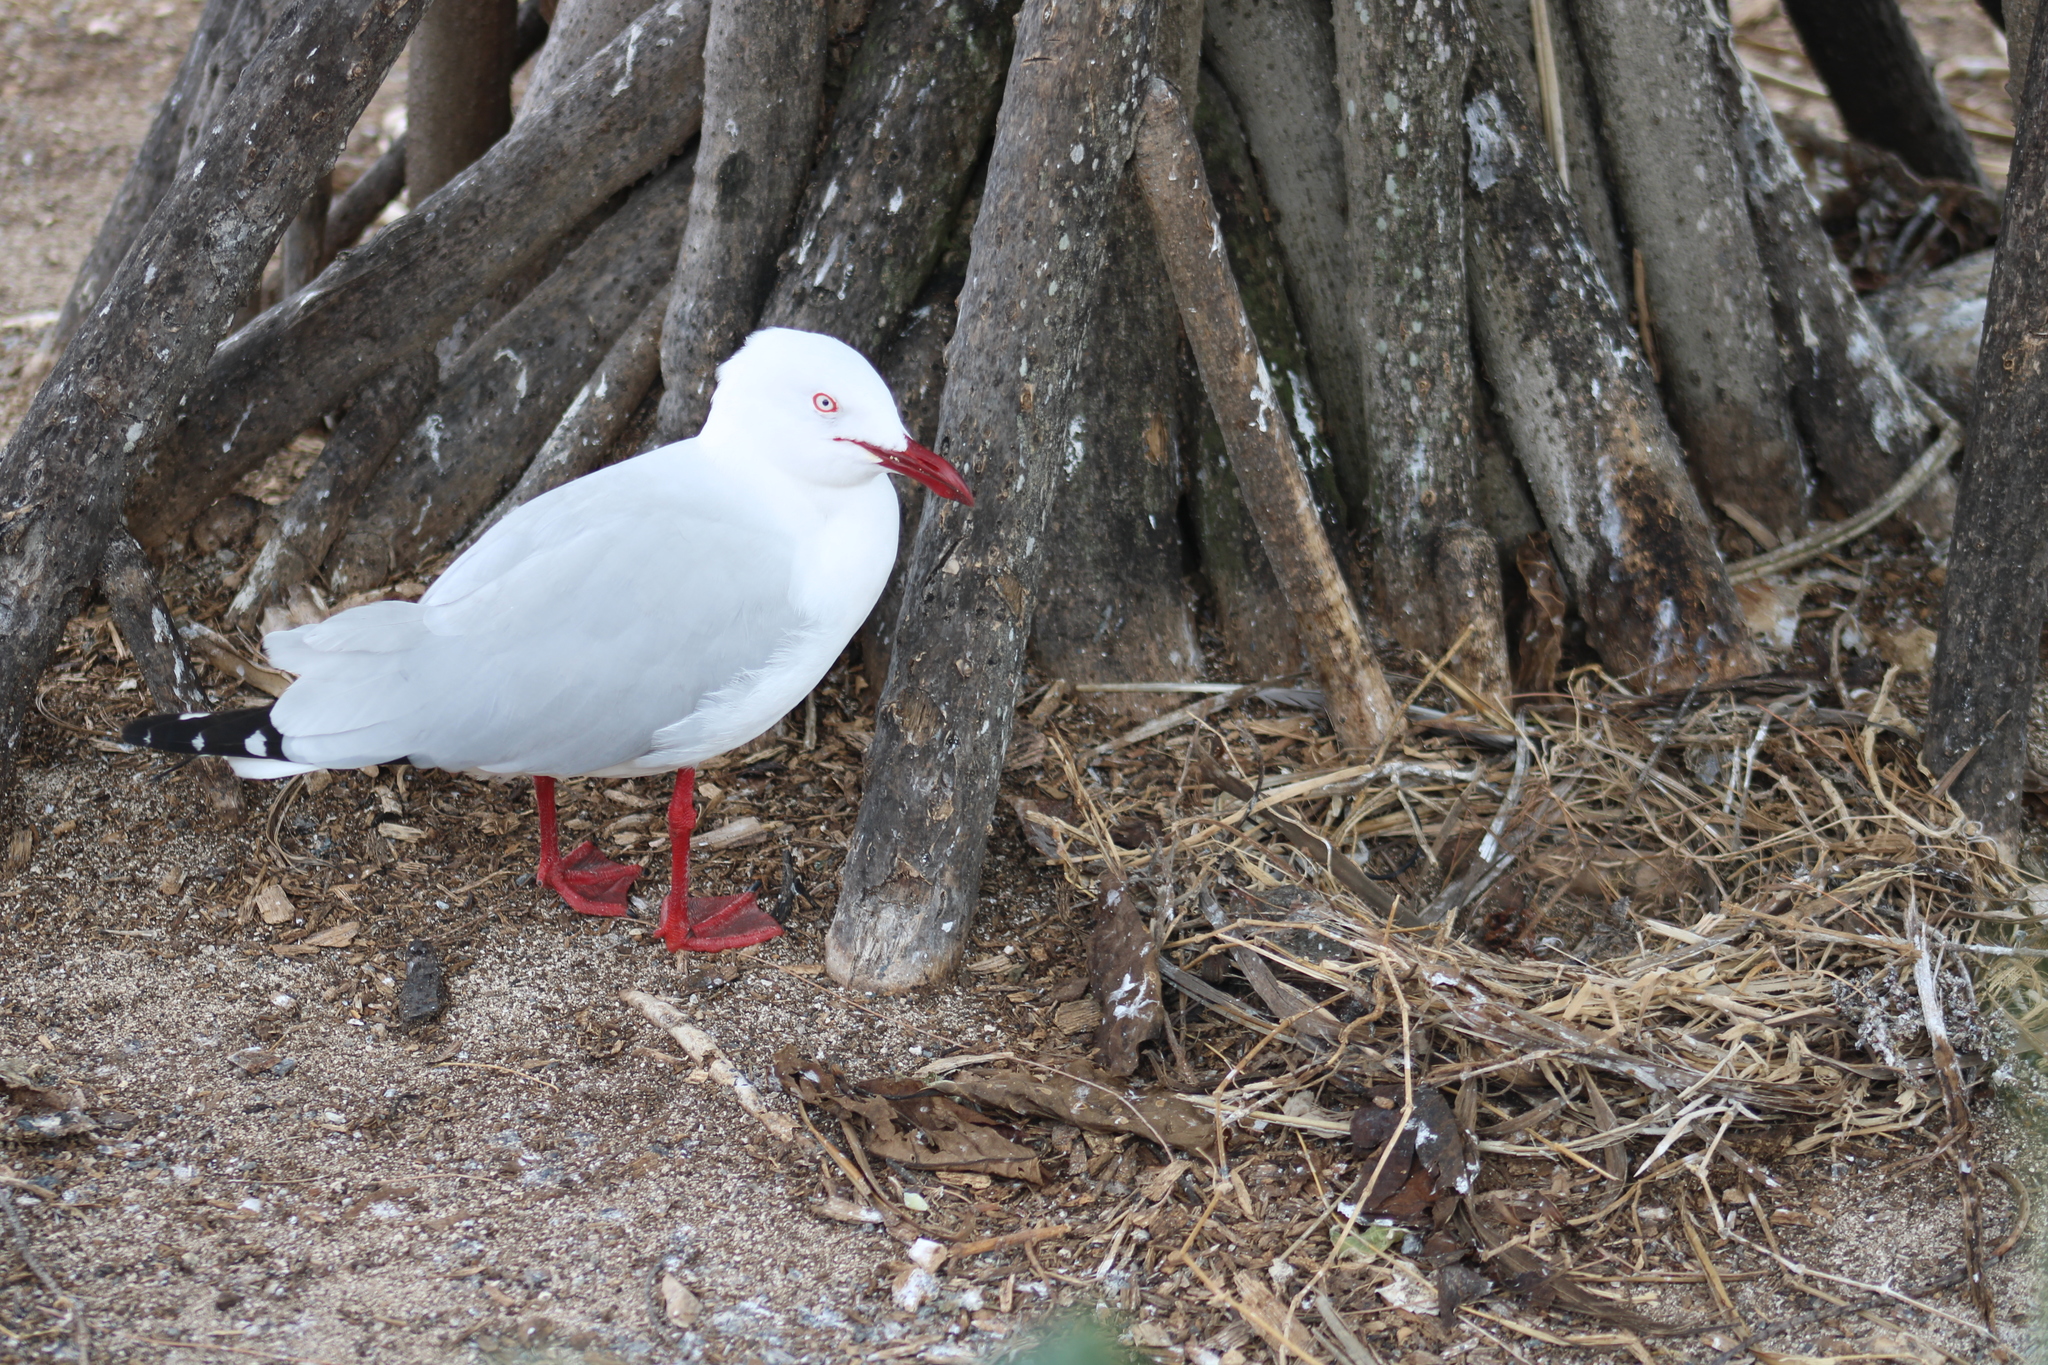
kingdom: Animalia
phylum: Chordata
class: Aves
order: Charadriiformes
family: Laridae
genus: Chroicocephalus
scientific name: Chroicocephalus novaehollandiae
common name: Silver gull
